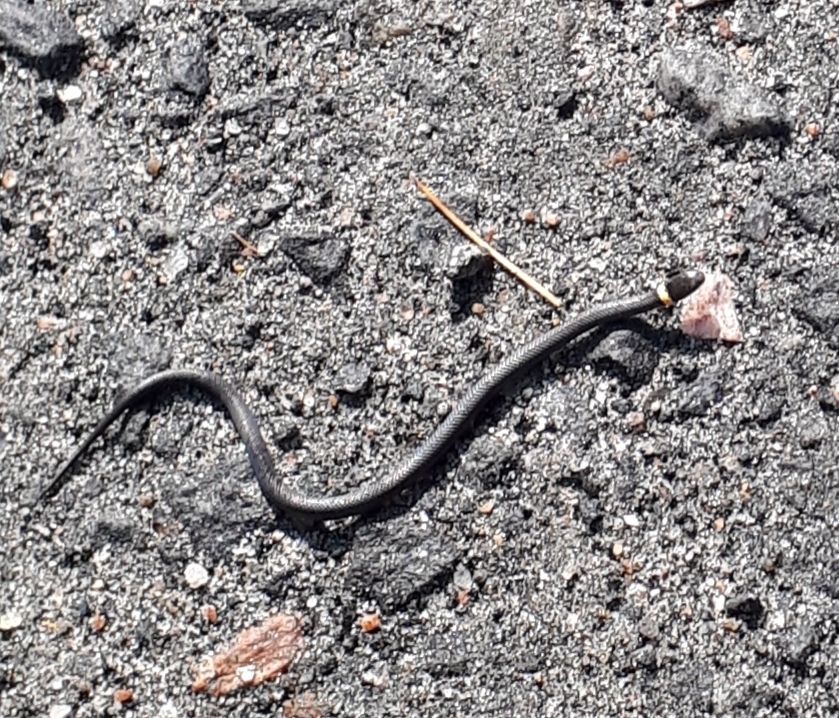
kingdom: Animalia
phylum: Chordata
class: Squamata
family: Colubridae
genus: Diadophis
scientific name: Diadophis punctatus
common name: Ringneck snake
